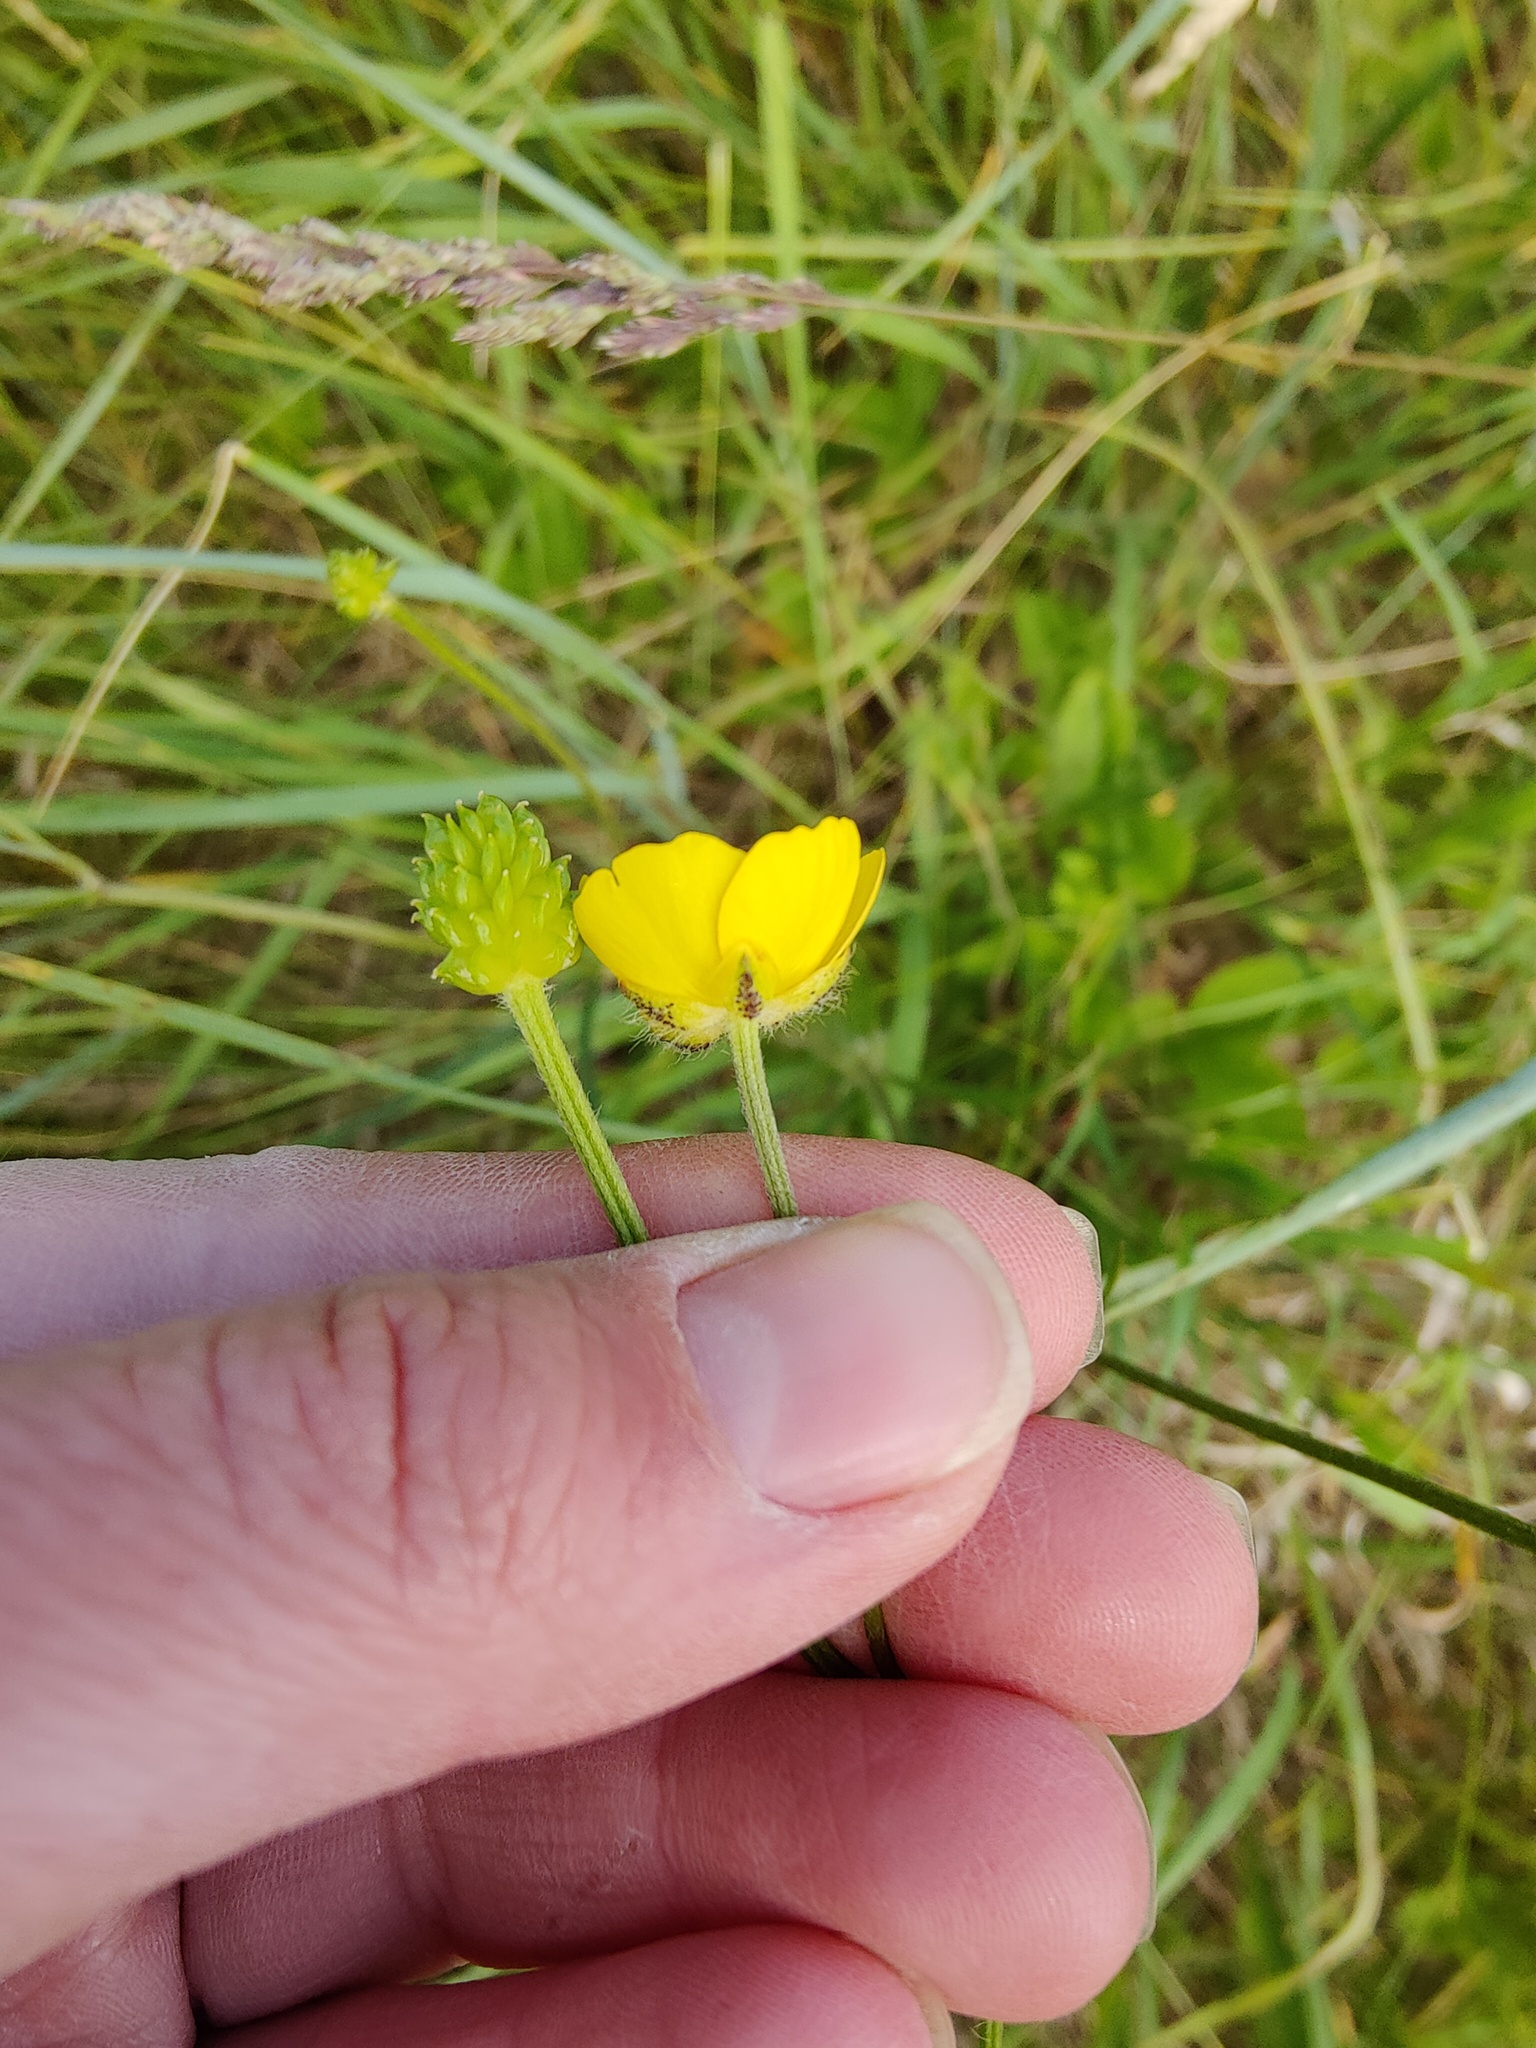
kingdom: Plantae
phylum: Tracheophyta
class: Magnoliopsida
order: Ranunculales
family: Ranunculaceae
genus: Ranunculus
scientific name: Ranunculus polyanthemos
